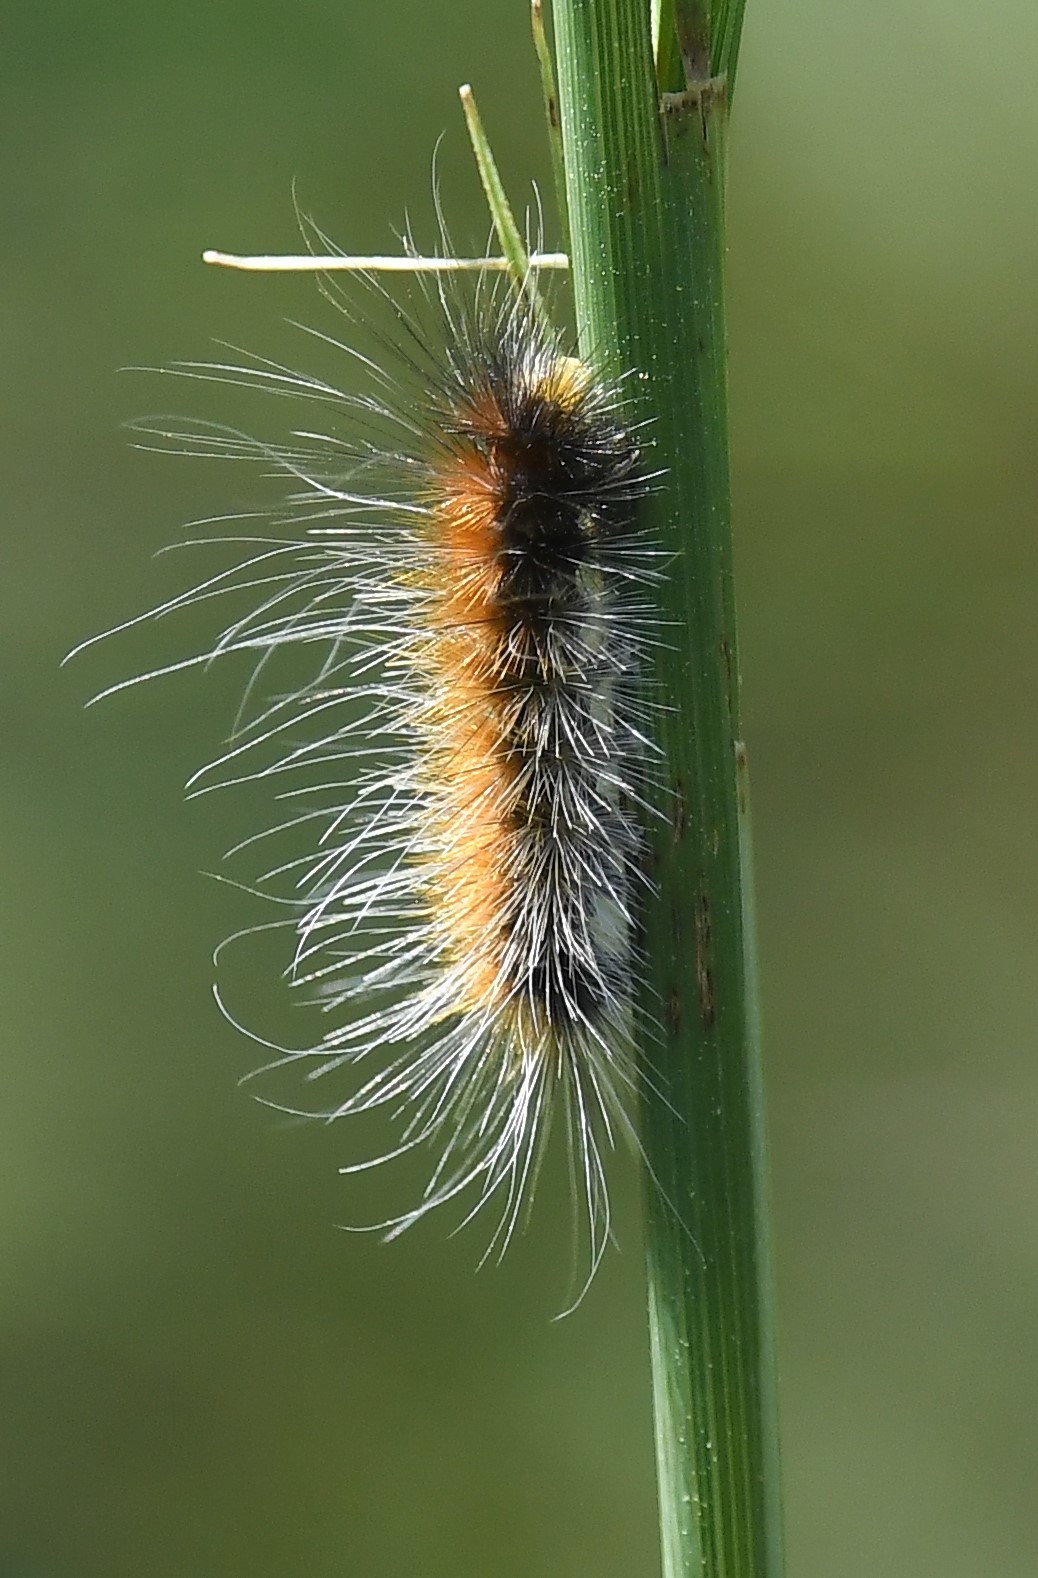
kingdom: Animalia
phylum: Arthropoda
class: Insecta
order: Lepidoptera
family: Erebidae
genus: Spilosoma
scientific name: Spilosoma virginica
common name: Virginia tiger moth
